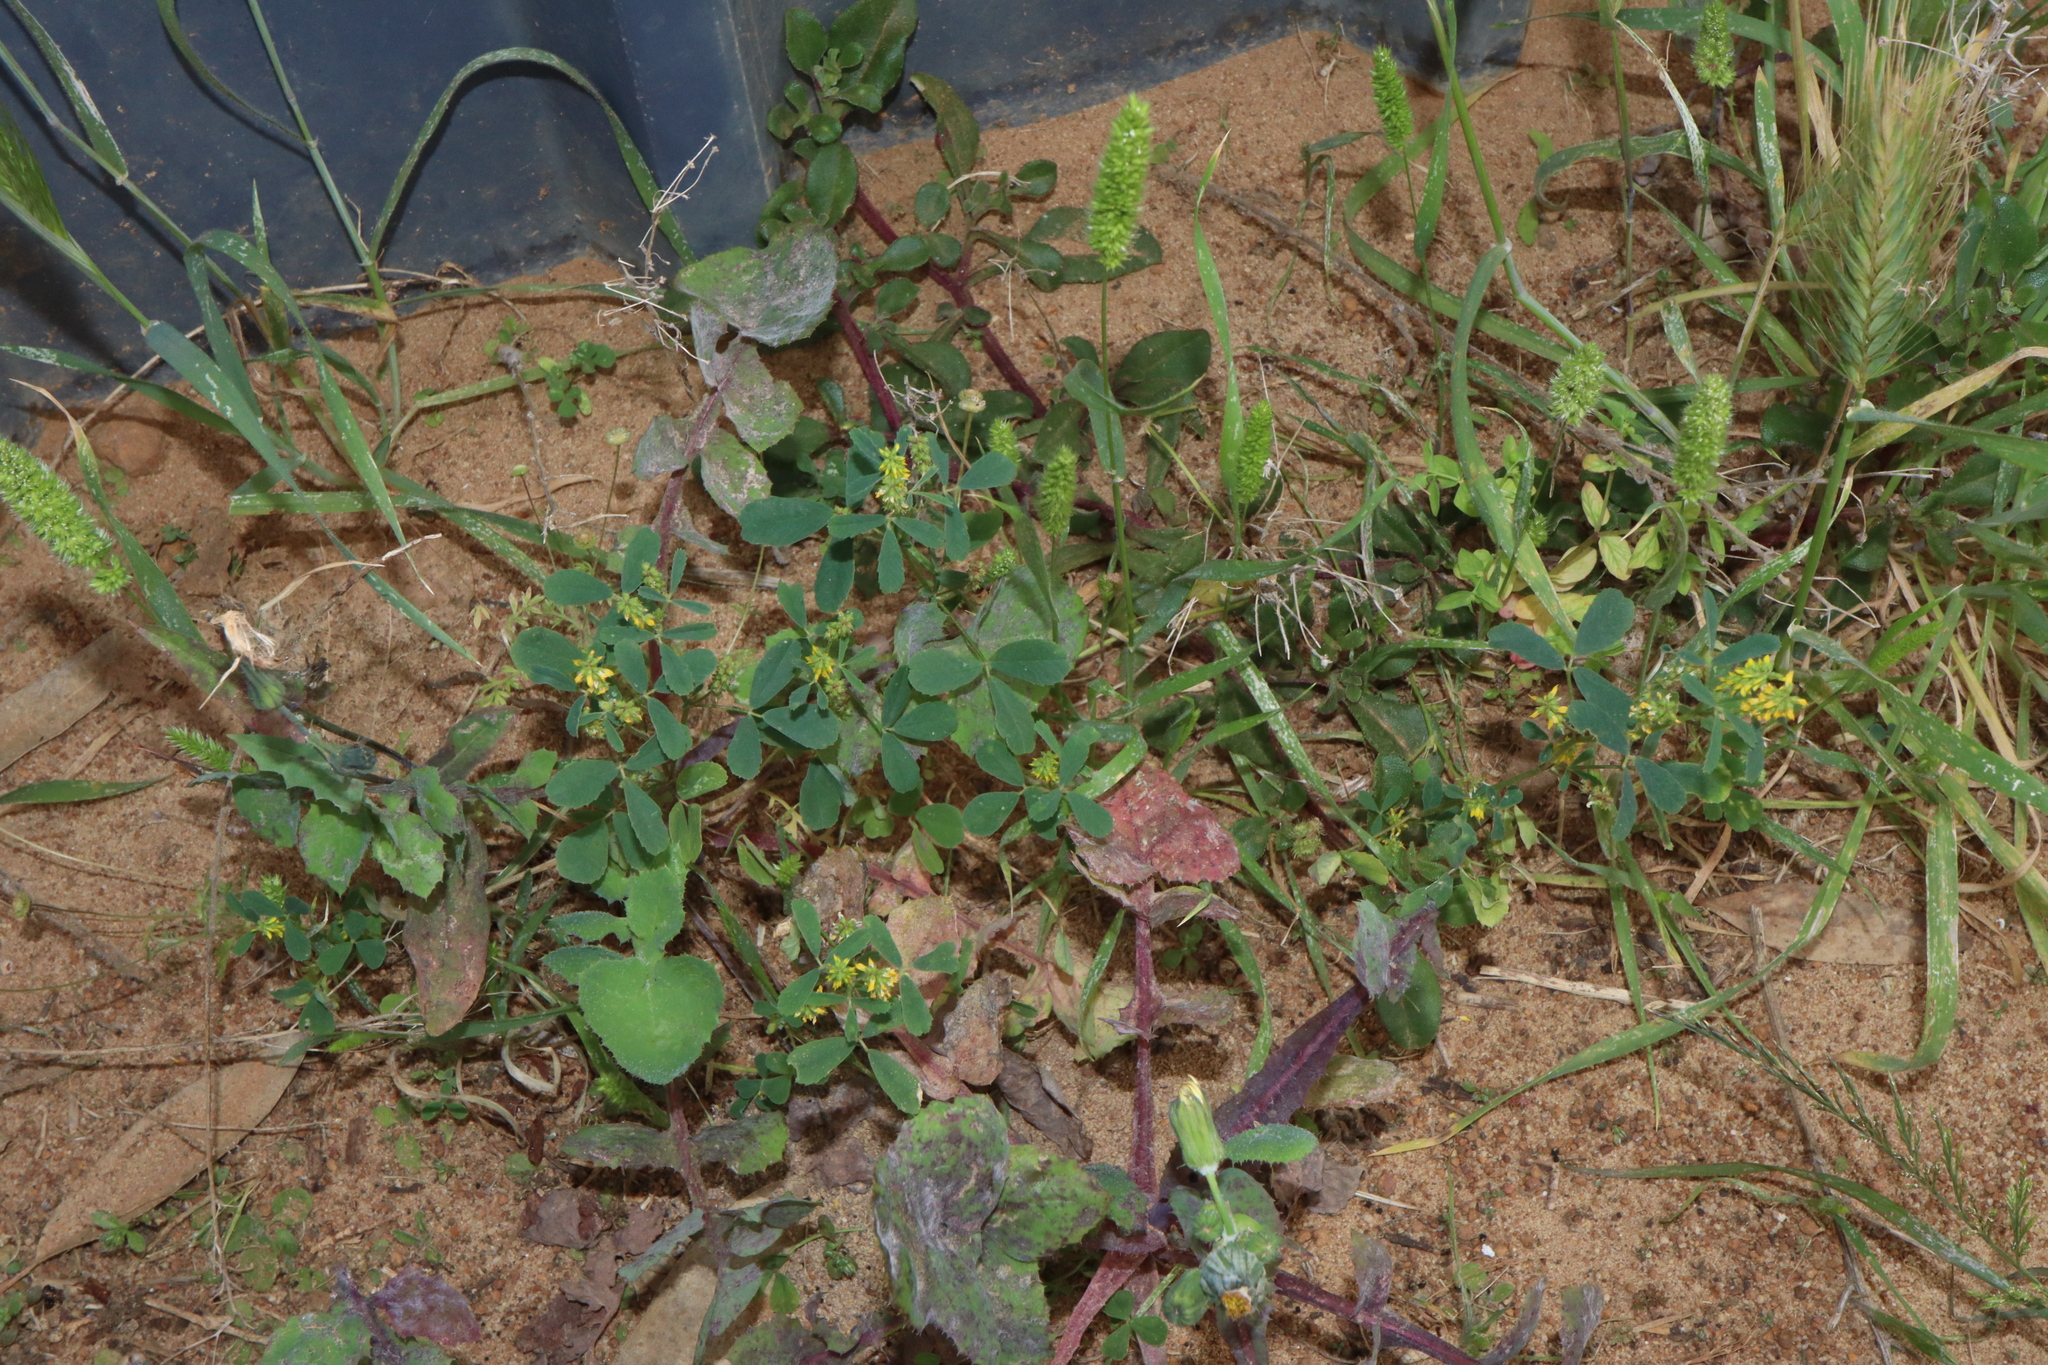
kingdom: Plantae
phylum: Tracheophyta
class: Magnoliopsida
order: Fabales
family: Fabaceae
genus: Melilotus
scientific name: Melilotus indicus
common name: Small melilot
